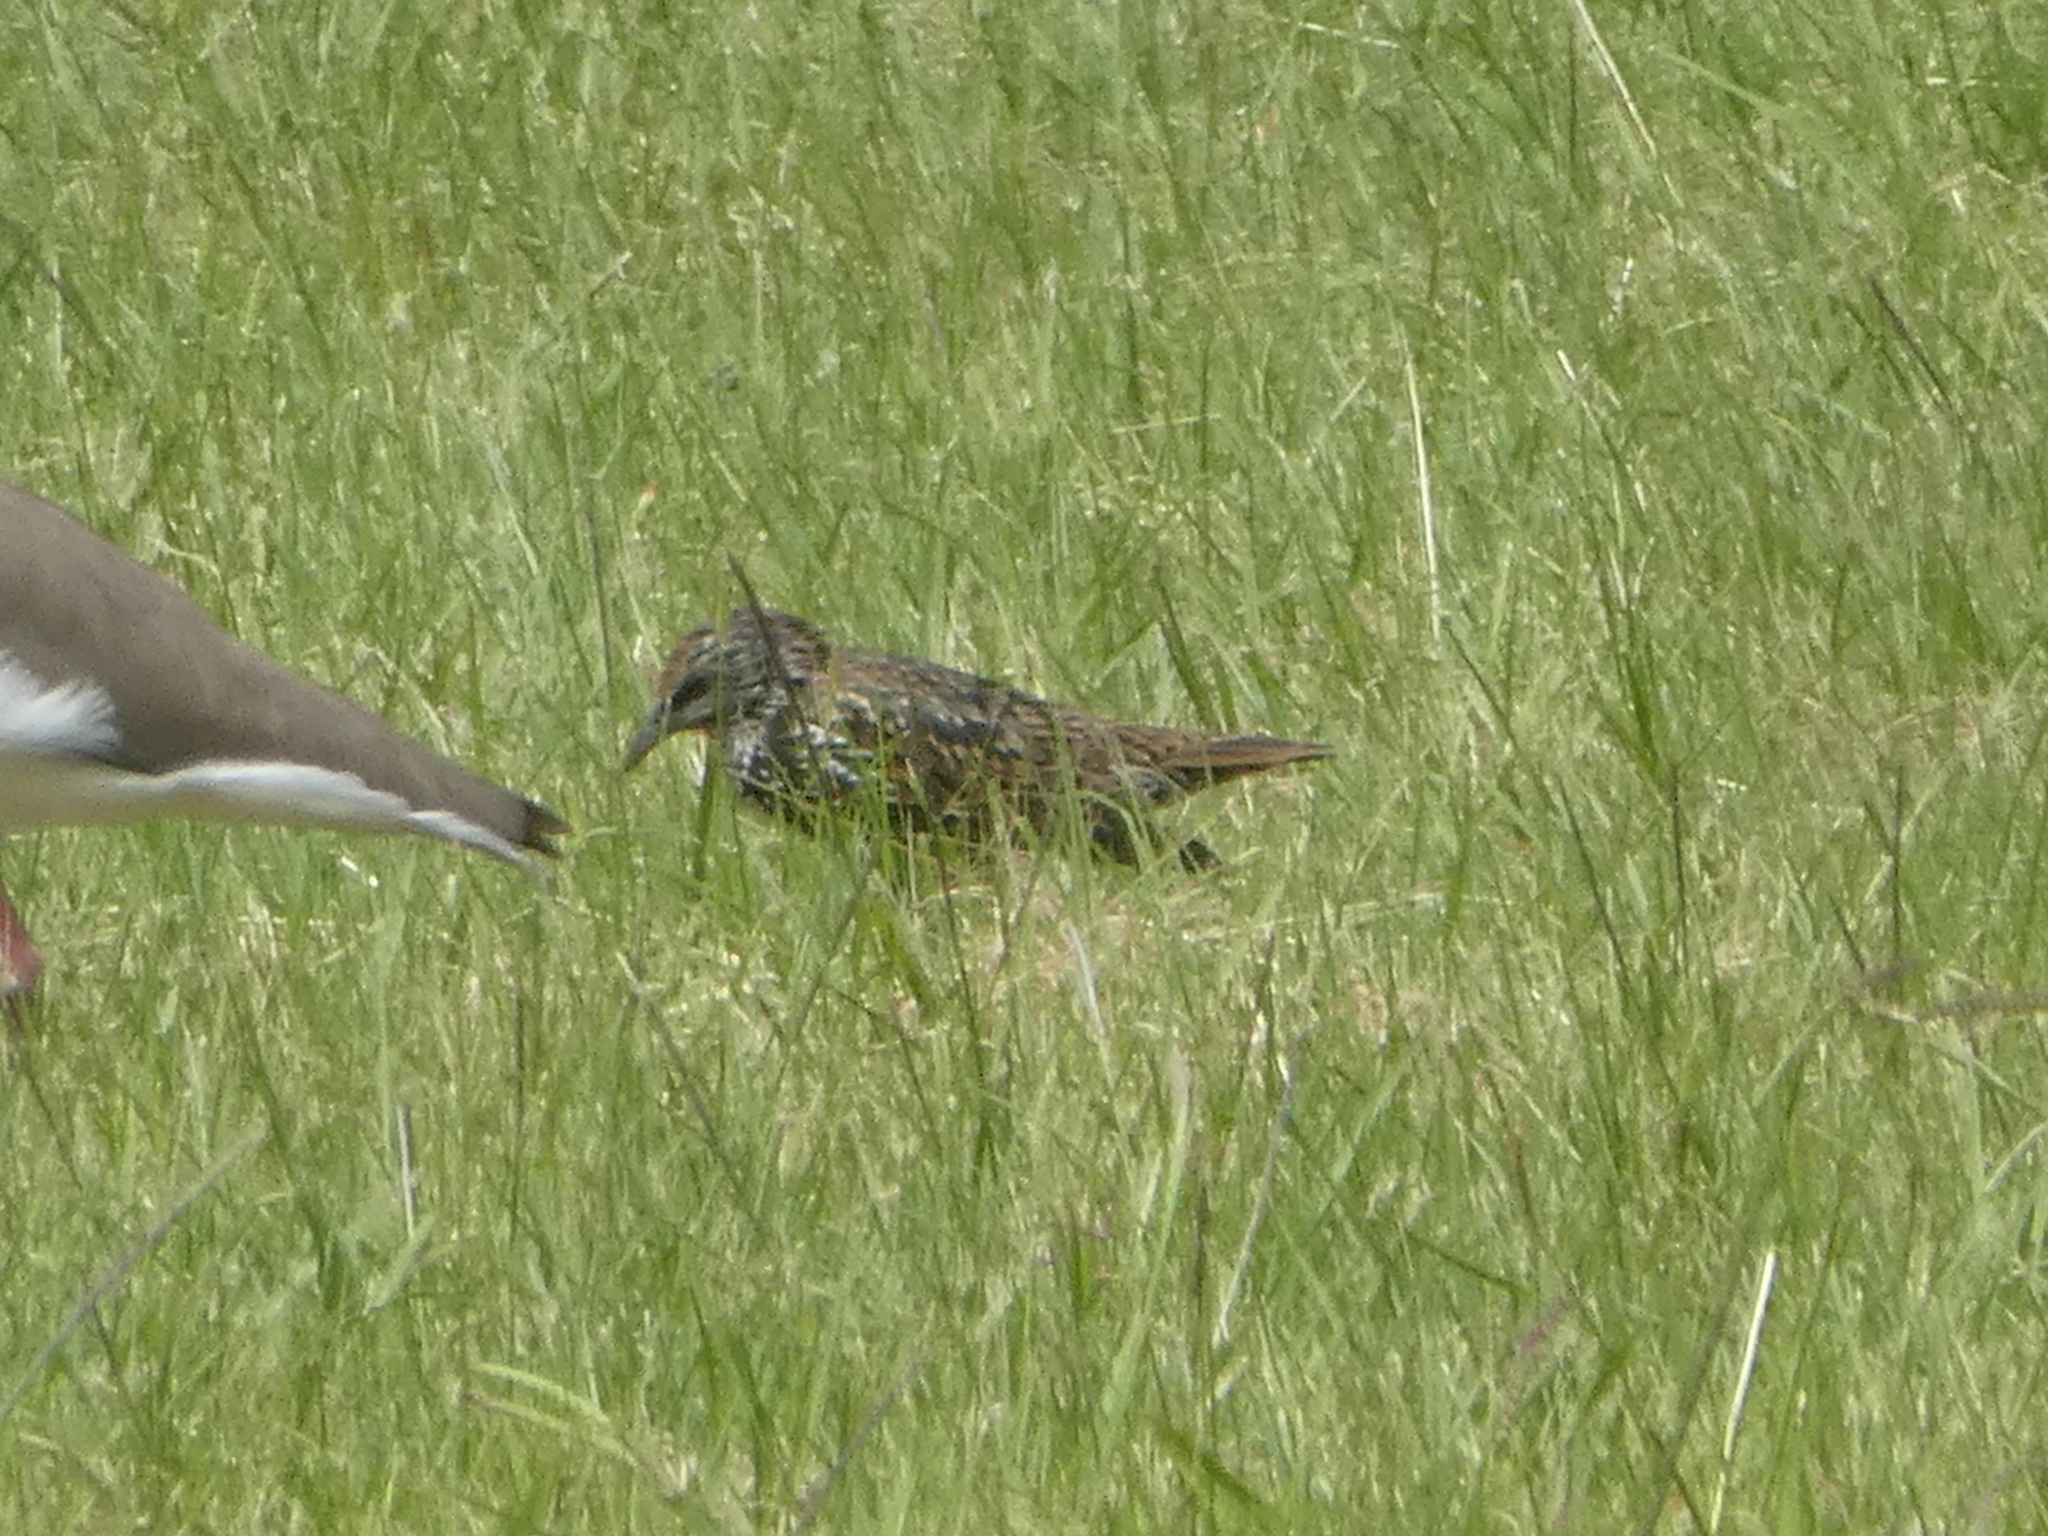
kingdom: Animalia
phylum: Chordata
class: Aves
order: Passeriformes
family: Sturnidae
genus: Sturnus
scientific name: Sturnus vulgaris
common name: Common starling
